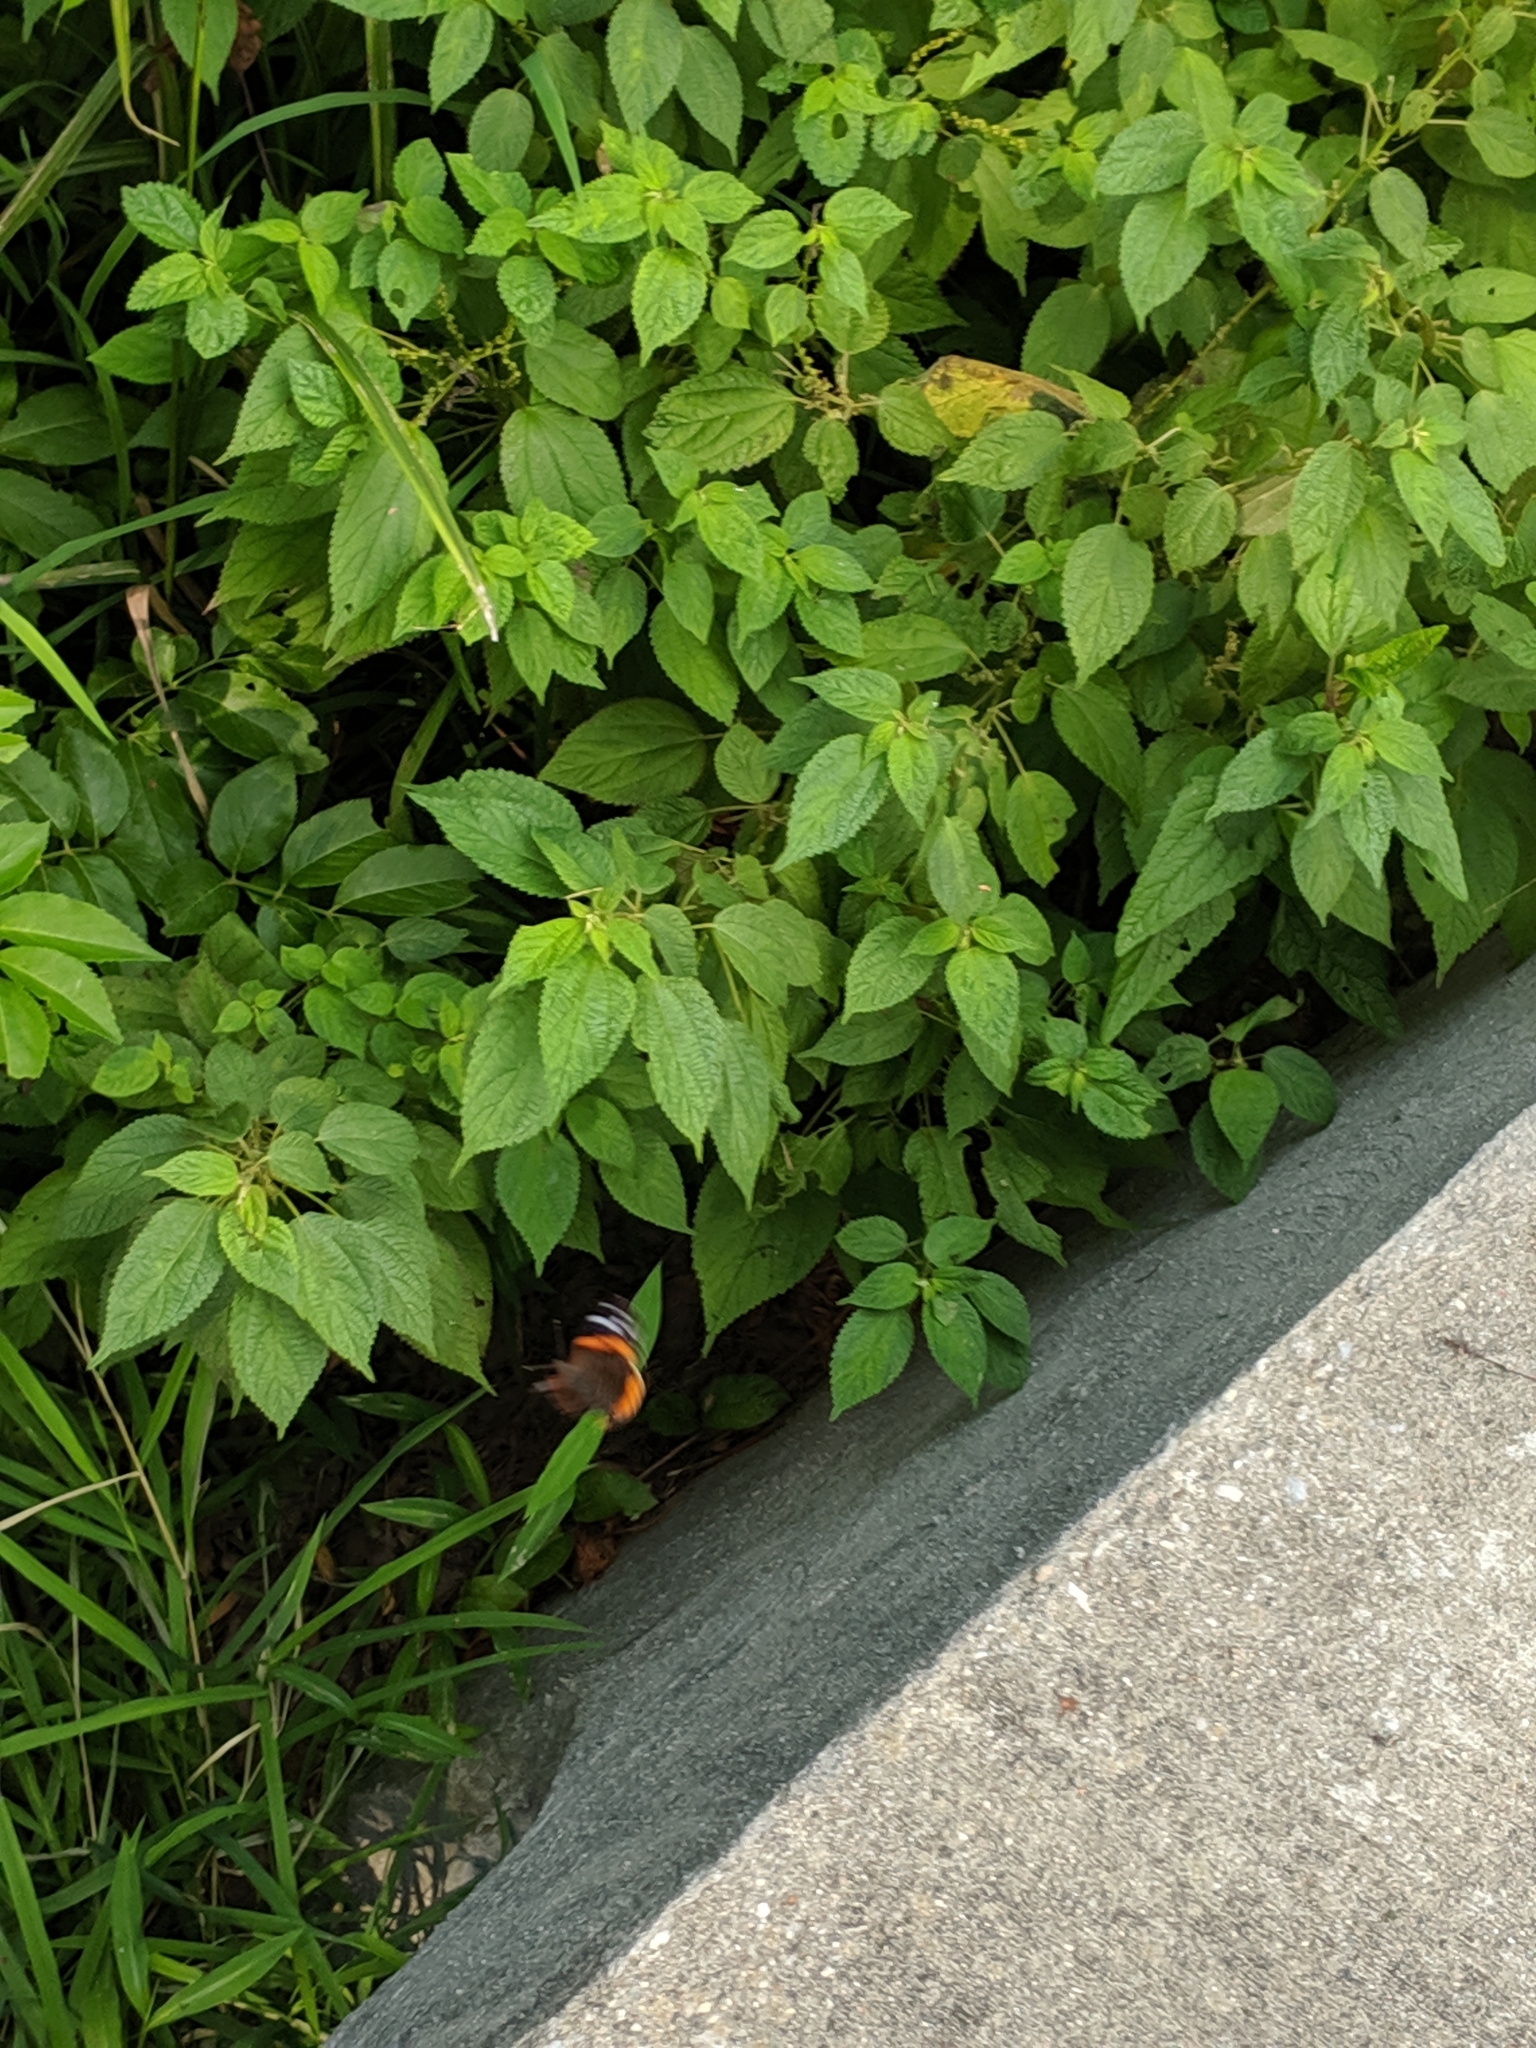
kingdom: Animalia
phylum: Arthropoda
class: Insecta
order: Lepidoptera
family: Nymphalidae
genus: Vanessa
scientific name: Vanessa atalanta
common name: Red admiral
